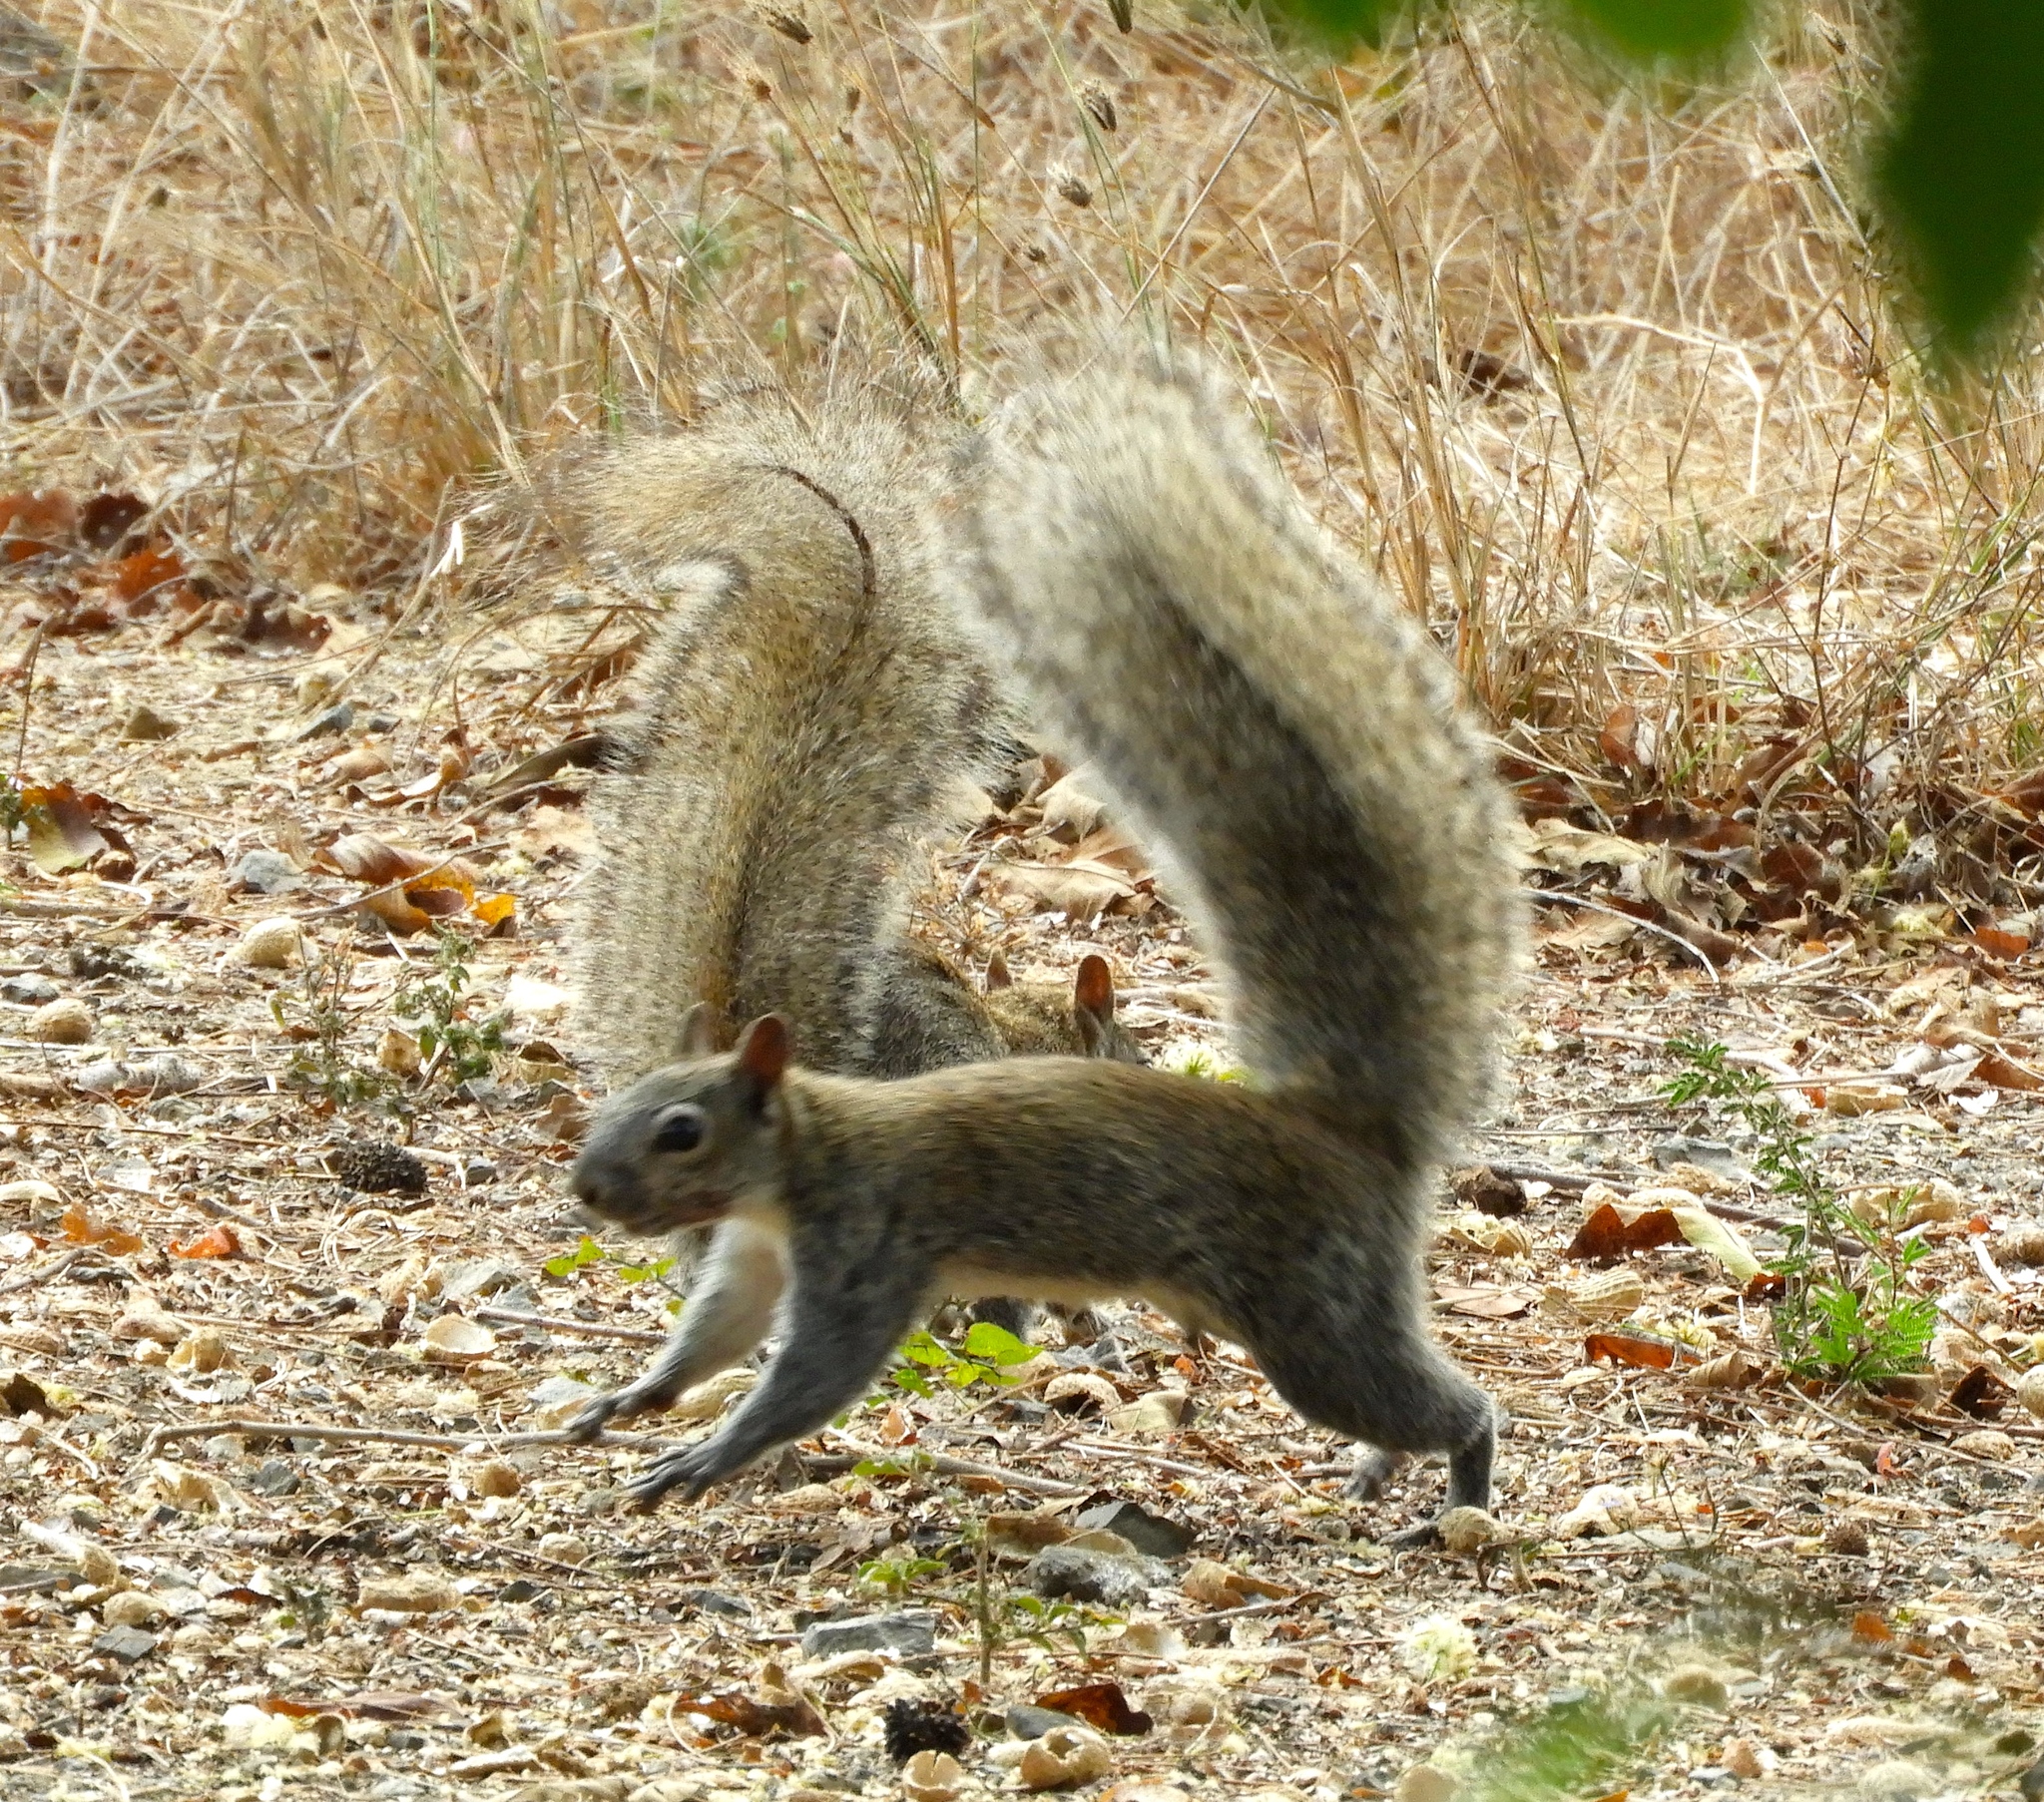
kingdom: Animalia
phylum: Chordata
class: Mammalia
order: Rodentia
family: Sciuridae
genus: Sciurus
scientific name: Sciurus colliaei
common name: Collie's squirrel
